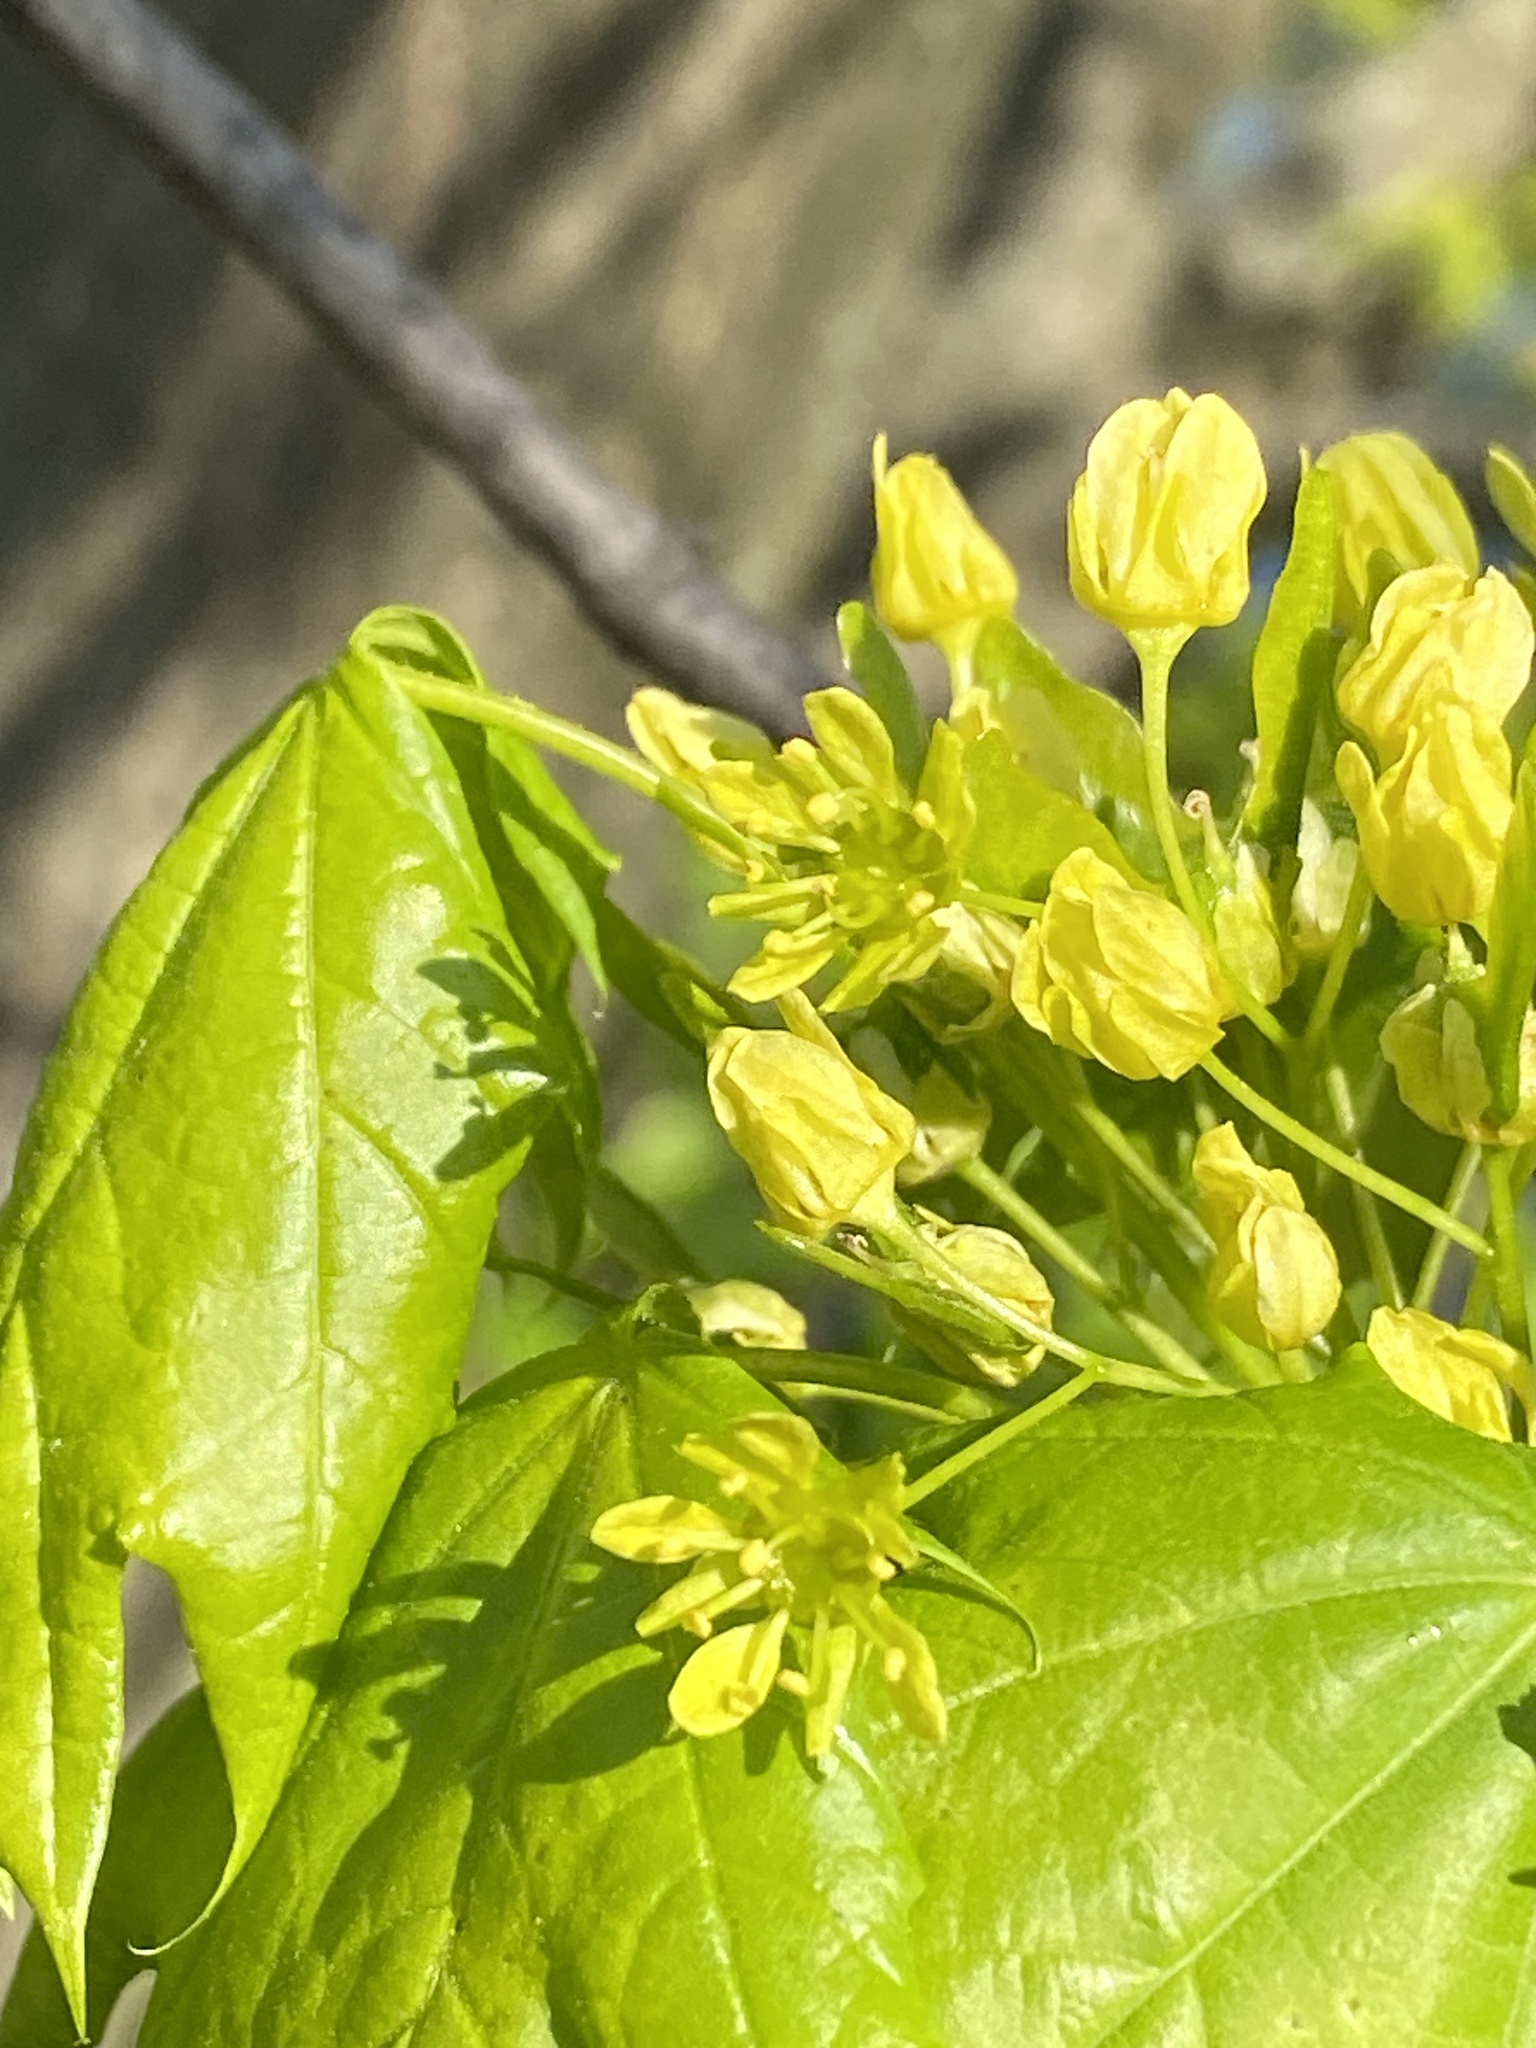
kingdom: Plantae
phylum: Tracheophyta
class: Magnoliopsida
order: Sapindales
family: Sapindaceae
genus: Acer
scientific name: Acer platanoides
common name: Norway maple
